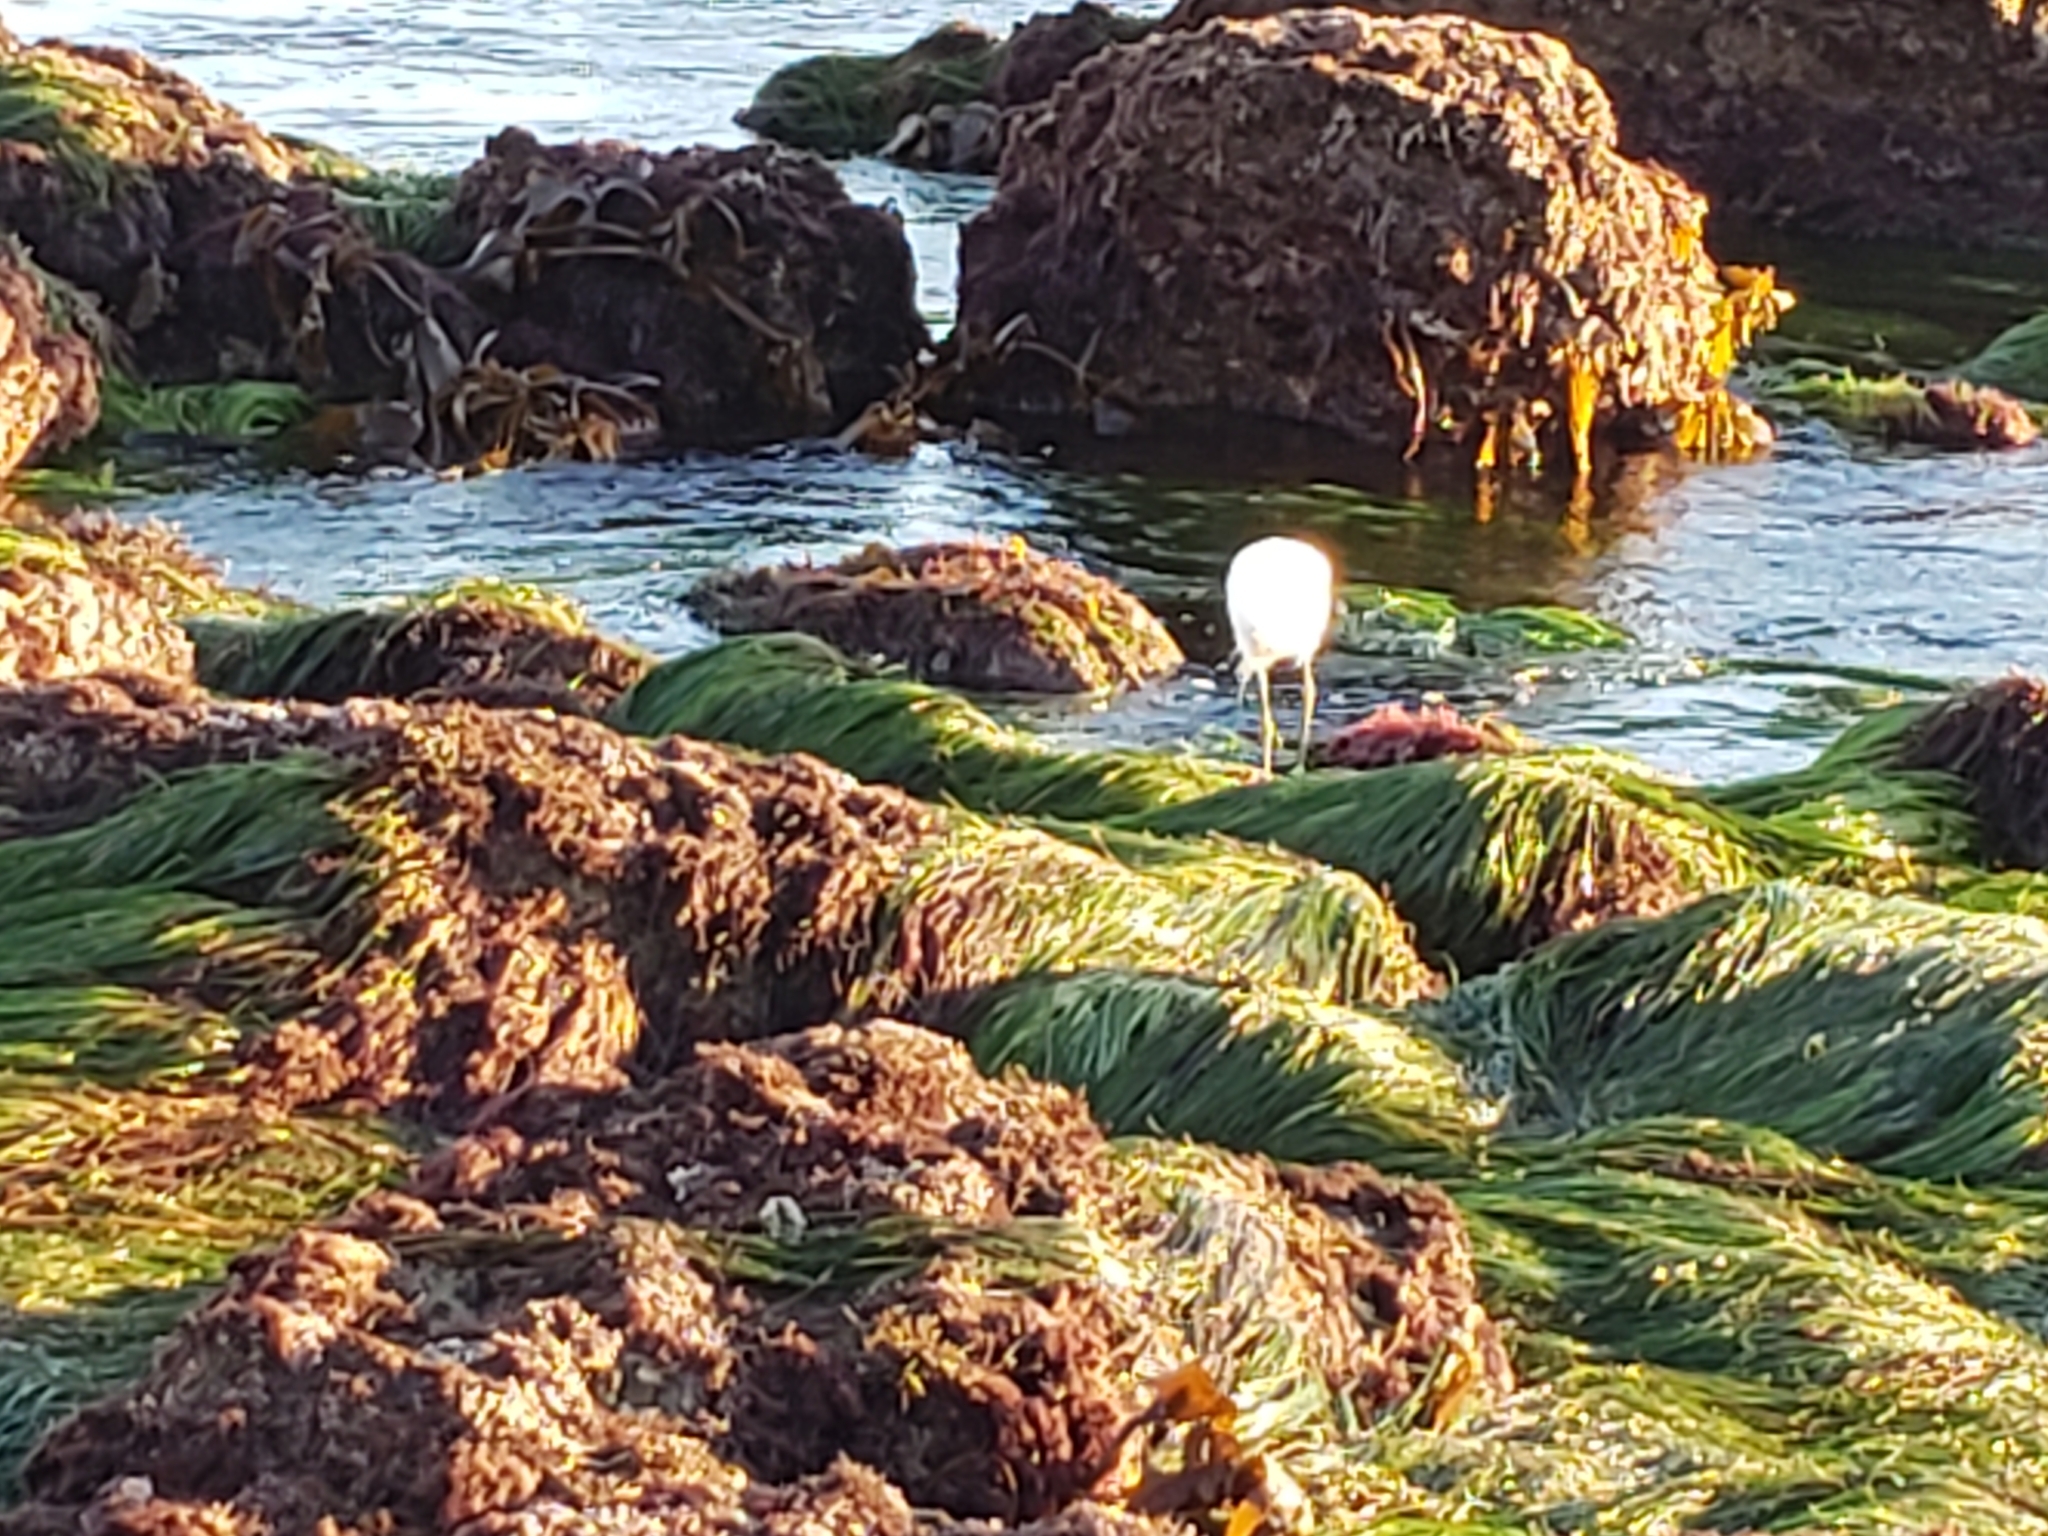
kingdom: Animalia
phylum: Chordata
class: Aves
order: Pelecaniformes
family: Ardeidae
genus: Egretta
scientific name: Egretta thula
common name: Snowy egret
